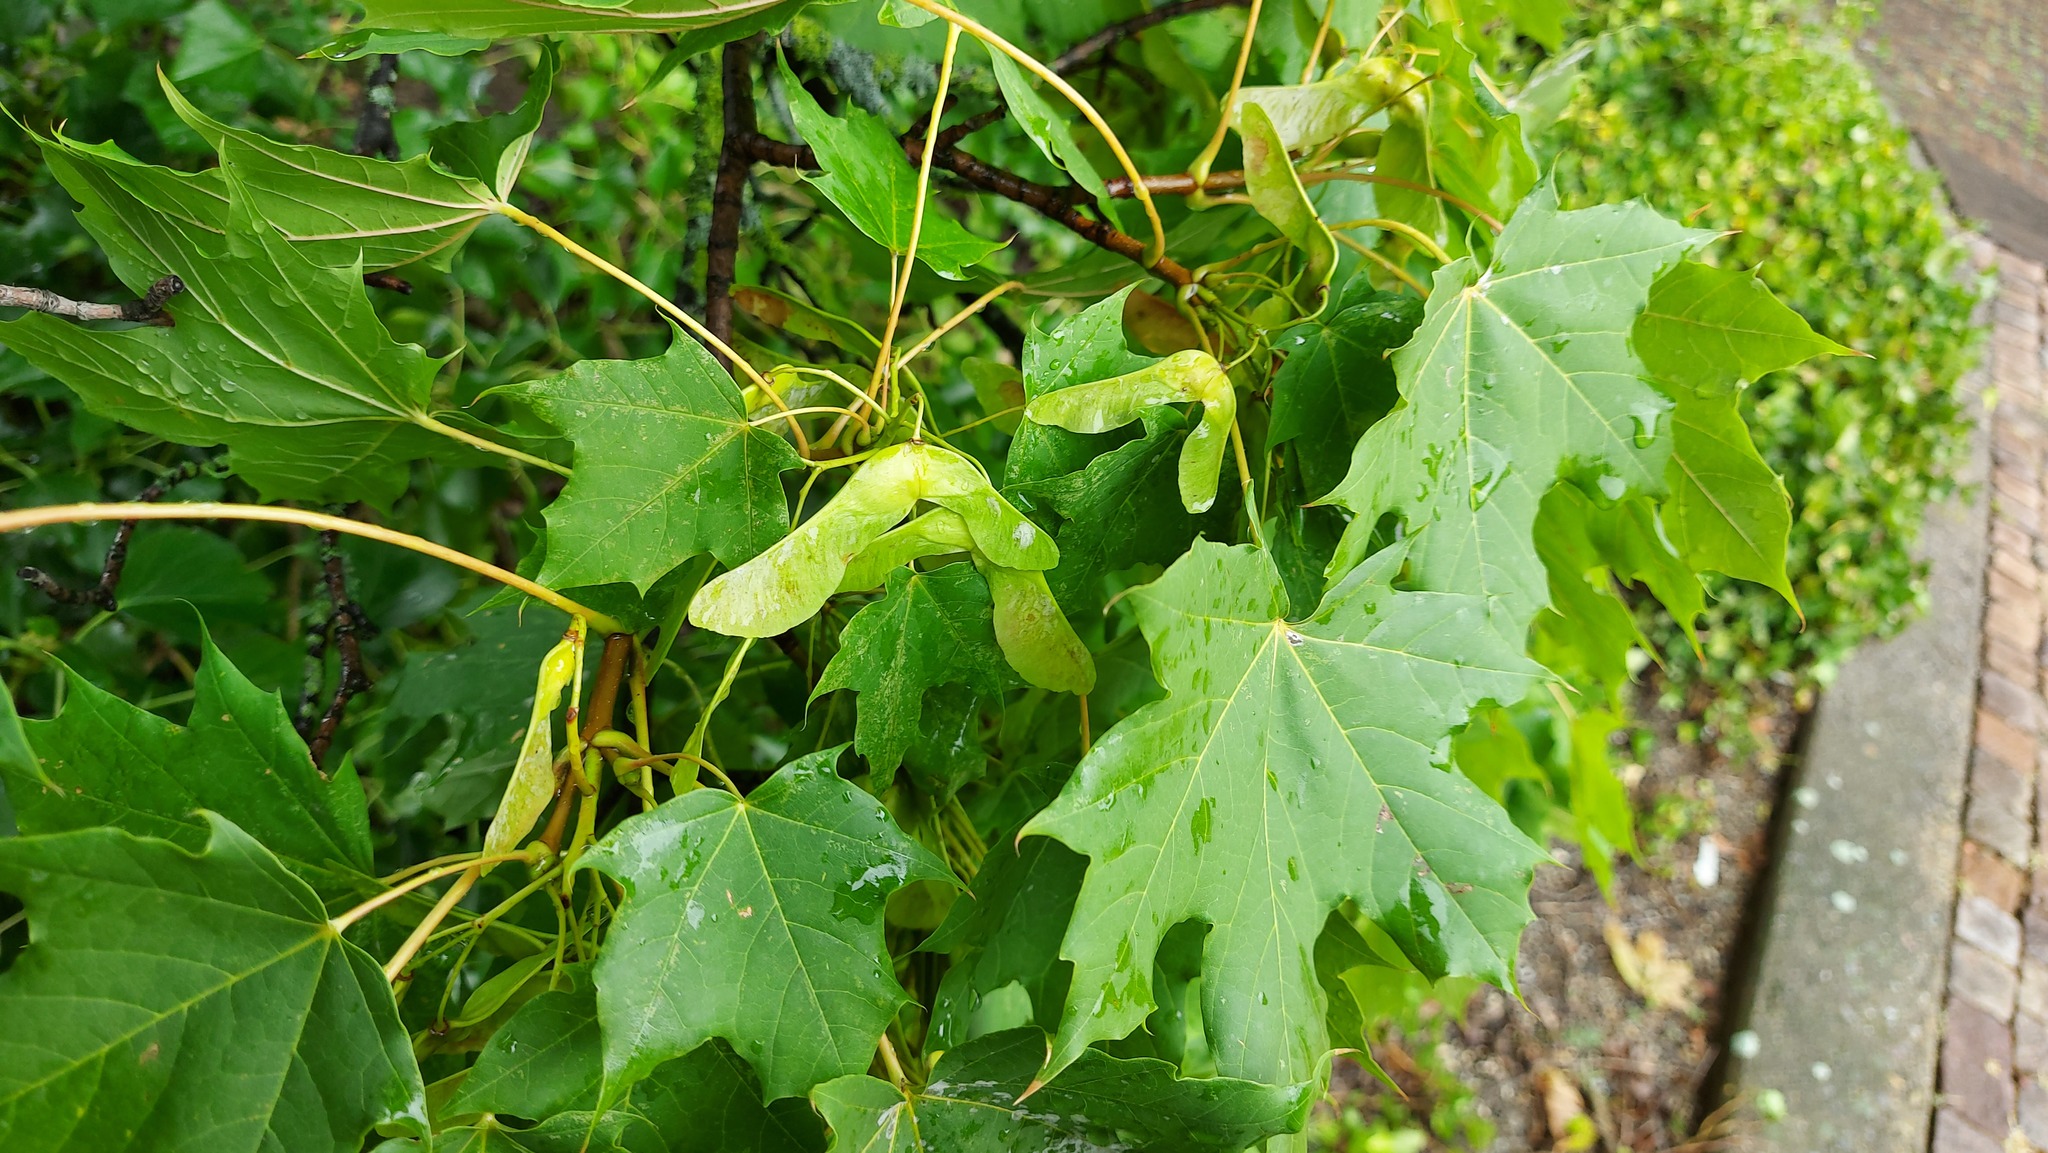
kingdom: Plantae
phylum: Tracheophyta
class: Magnoliopsida
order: Sapindales
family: Sapindaceae
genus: Acer
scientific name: Acer platanoides
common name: Norway maple
